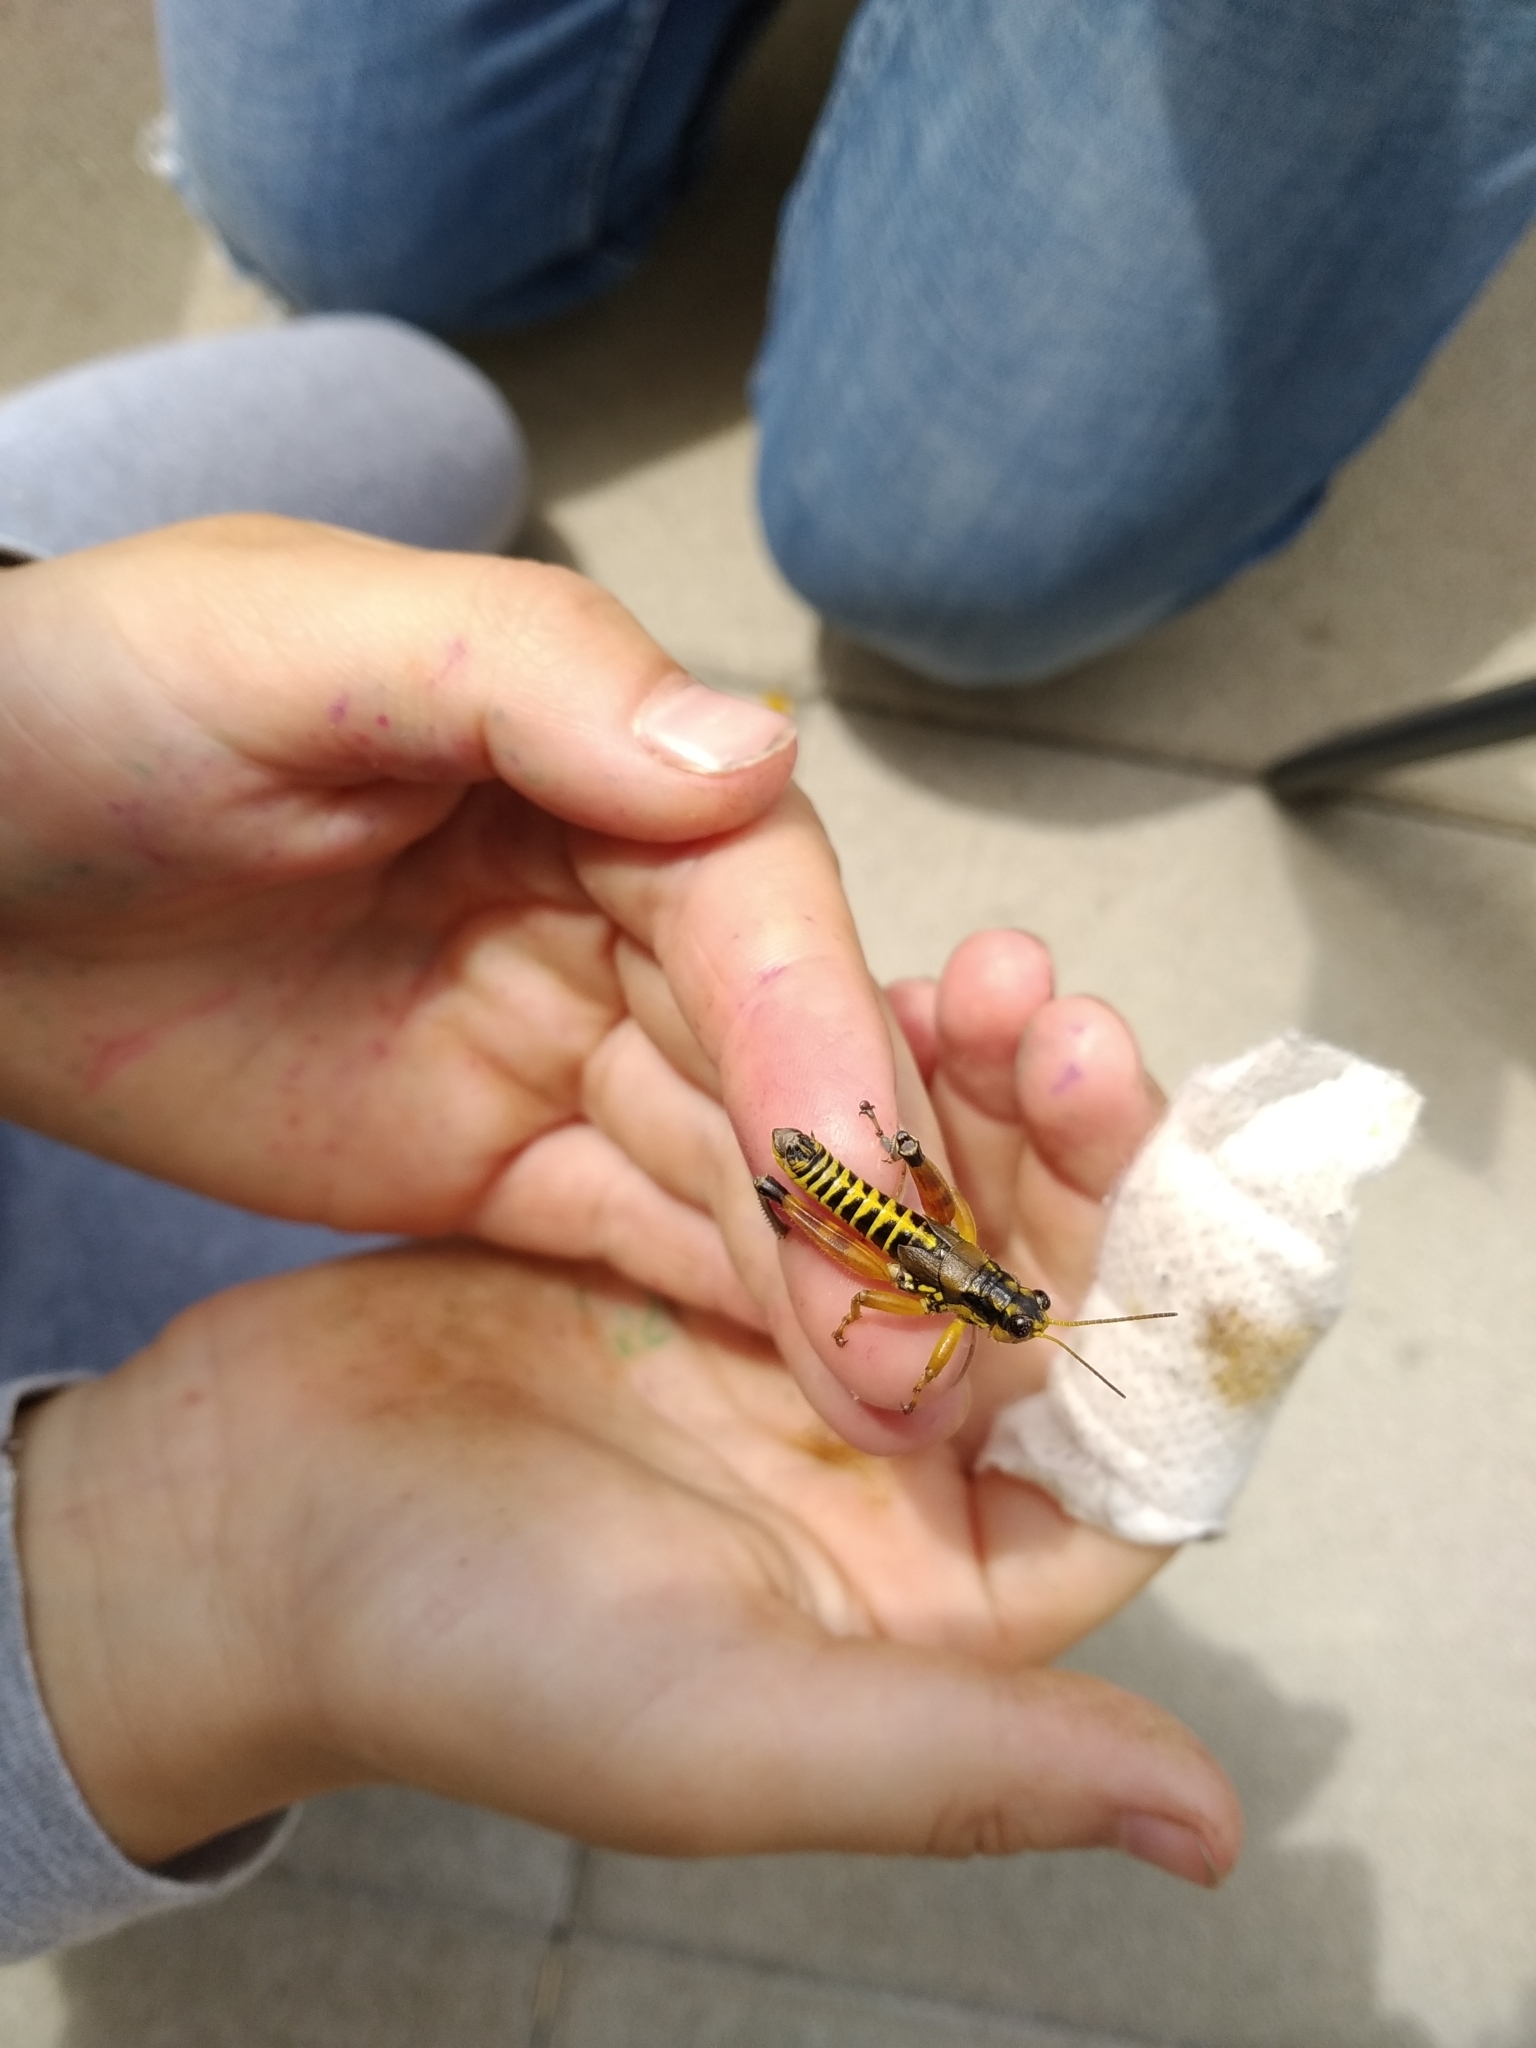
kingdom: Animalia
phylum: Arthropoda
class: Insecta
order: Orthoptera
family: Acrididae
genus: Podisma
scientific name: Podisma pedestris
